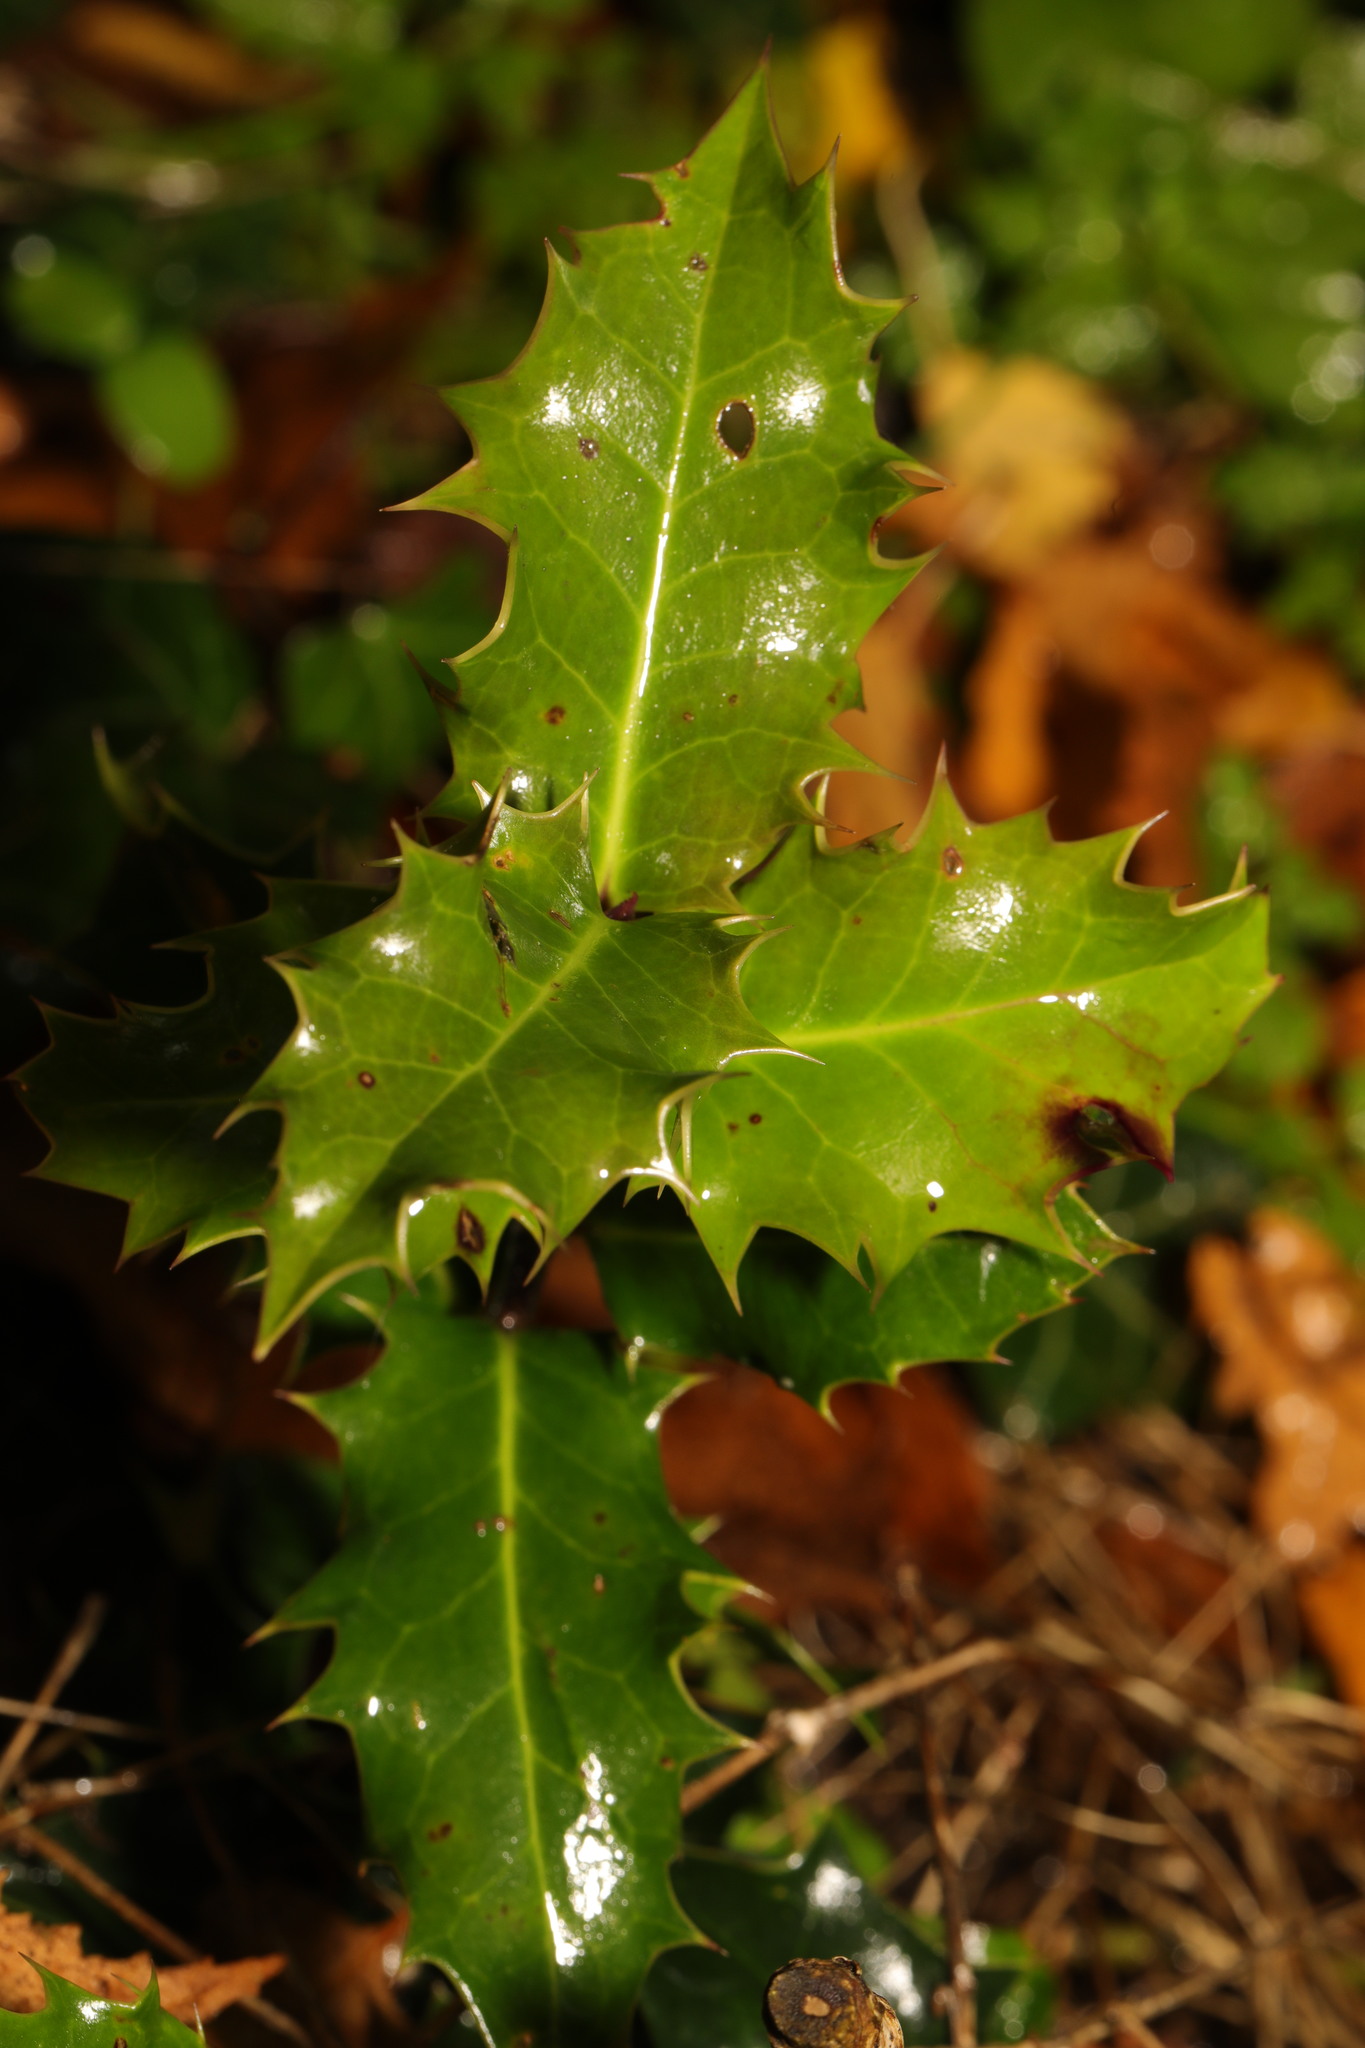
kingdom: Plantae
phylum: Tracheophyta
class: Magnoliopsida
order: Aquifoliales
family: Aquifoliaceae
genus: Ilex
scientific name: Ilex aquifolium
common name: English holly
